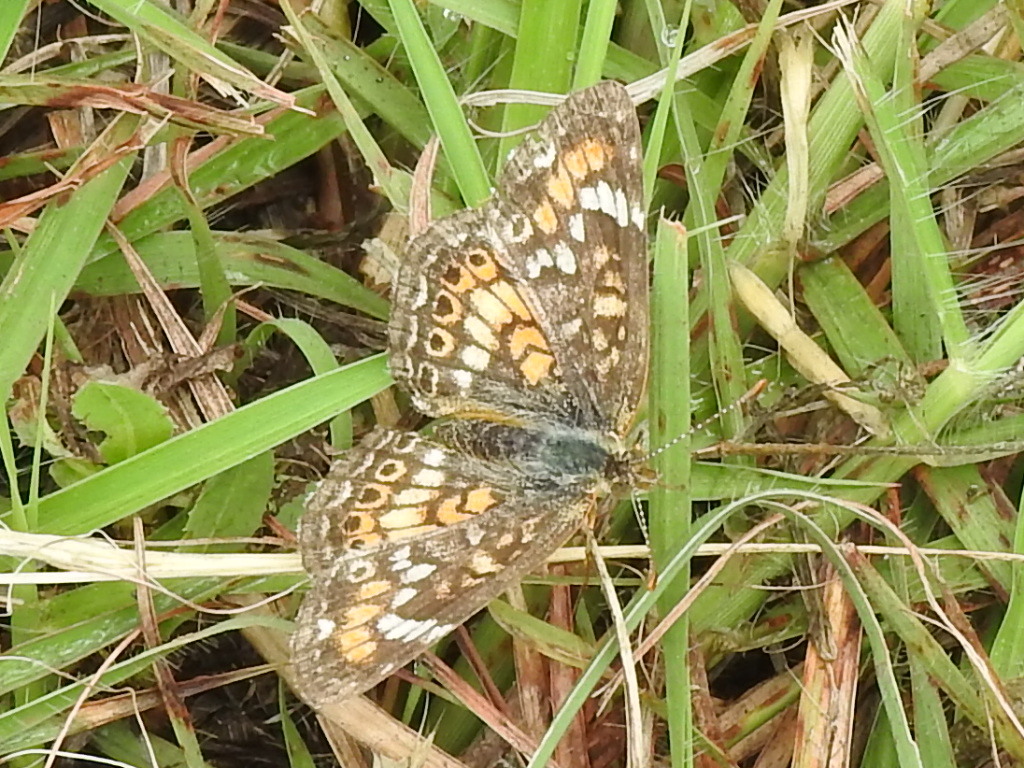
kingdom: Animalia
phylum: Arthropoda
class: Insecta
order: Lepidoptera
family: Nymphalidae
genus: Phyciodes
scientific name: Phyciodes phaon
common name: Phaon crescent
